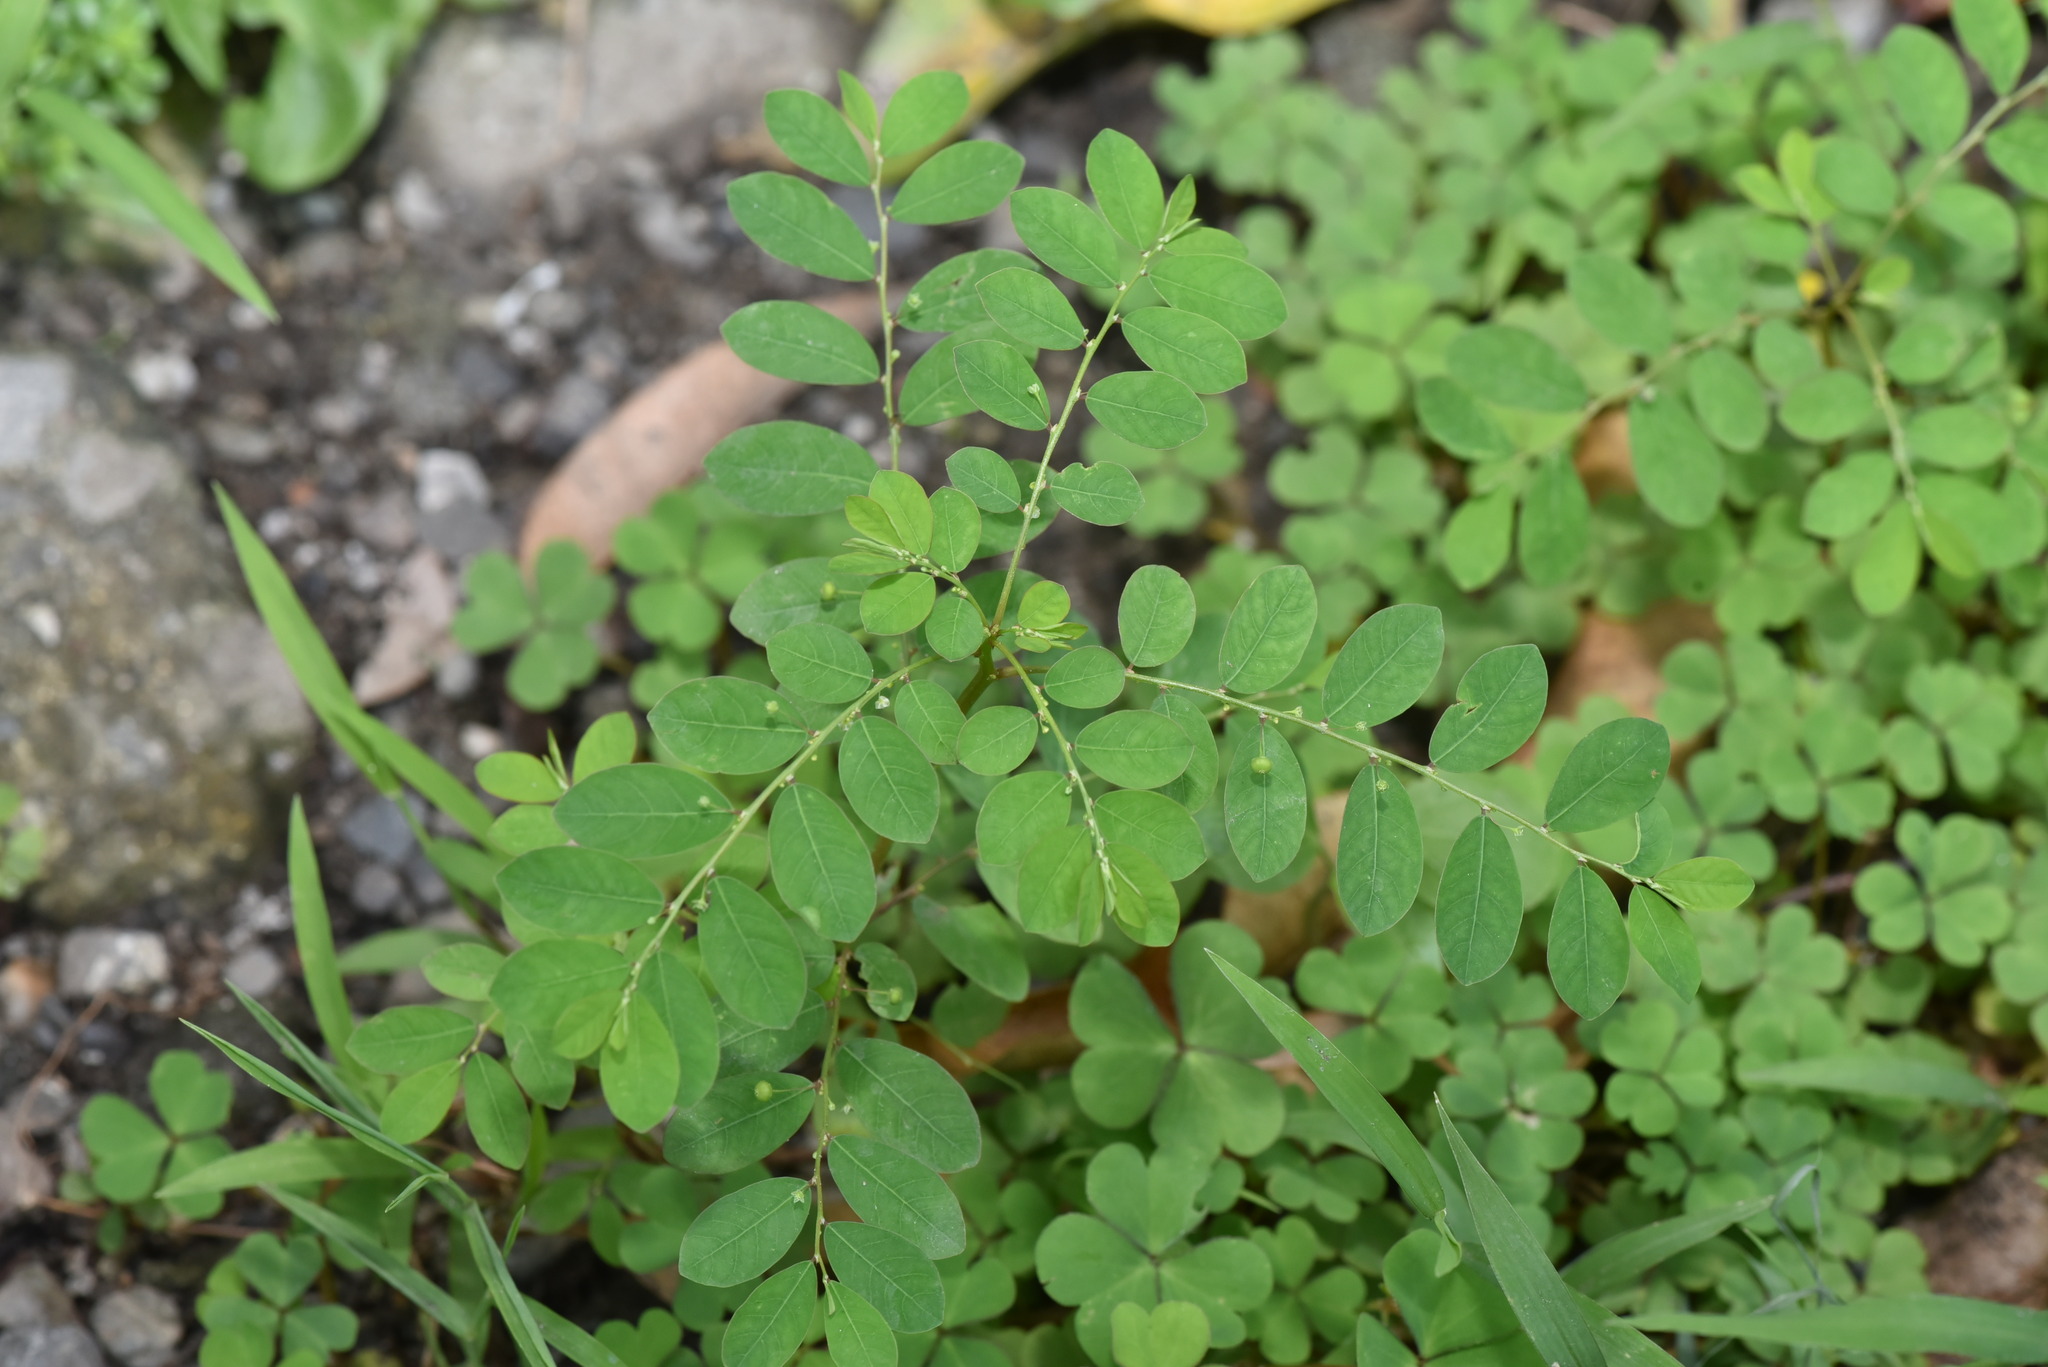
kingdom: Plantae
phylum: Tracheophyta
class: Magnoliopsida
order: Malpighiales
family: Phyllanthaceae
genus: Phyllanthus
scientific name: Phyllanthus tenellus
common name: Mascarene island leaf-flower
